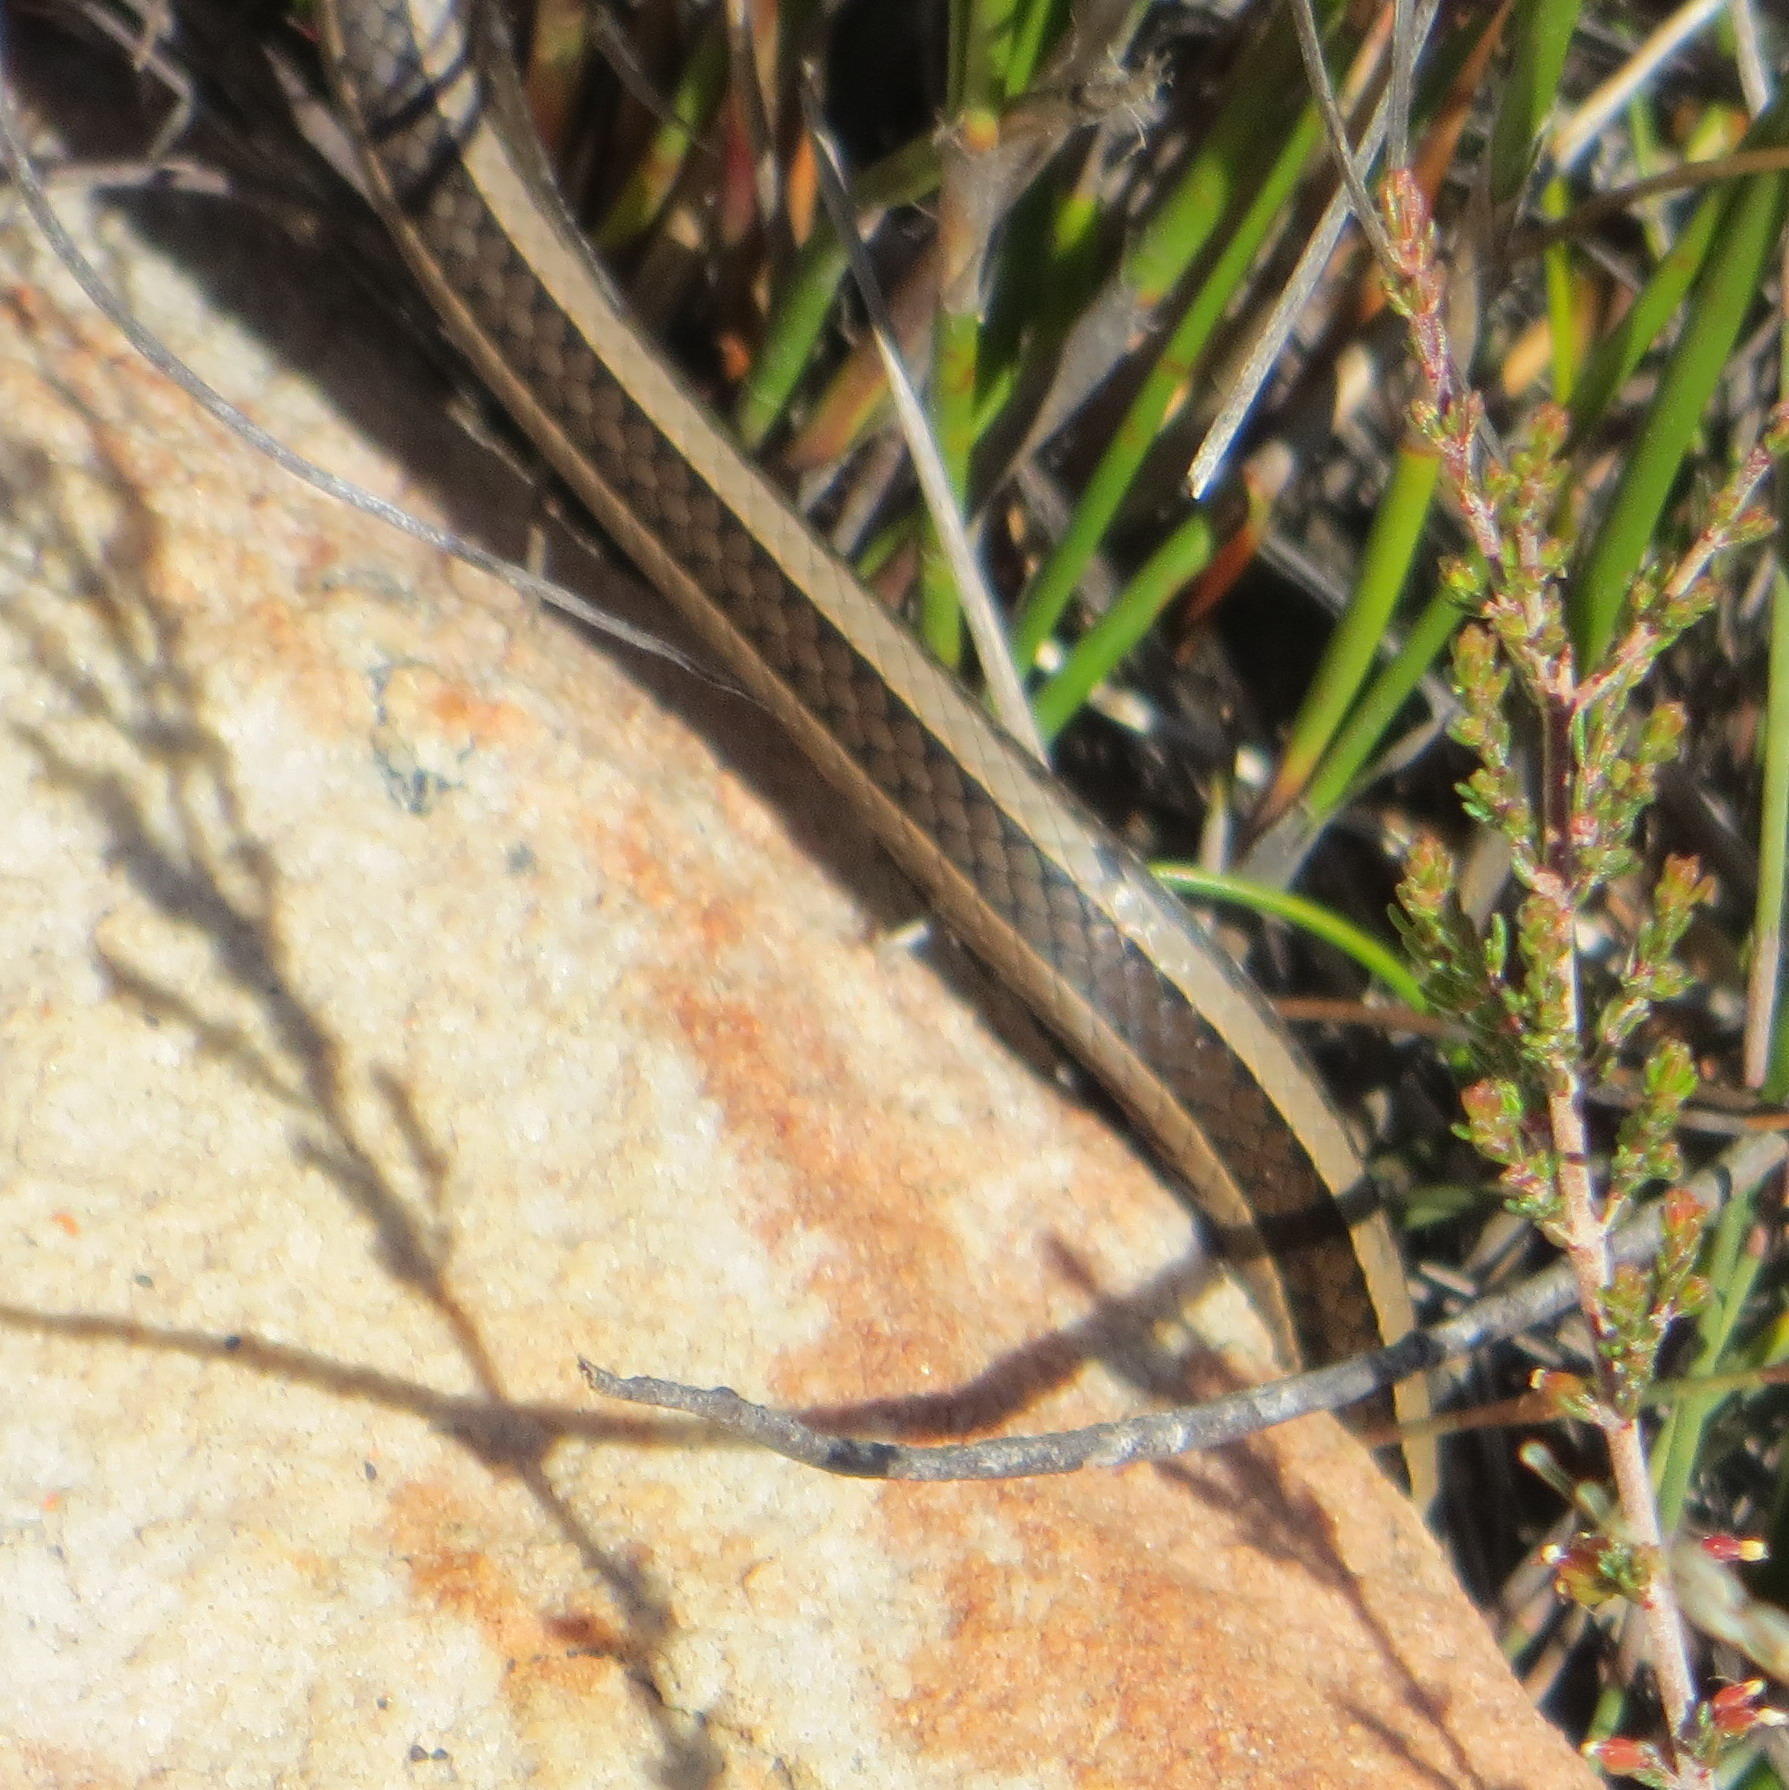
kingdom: Animalia
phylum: Chordata
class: Squamata
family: Psammophiidae
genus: Psammophis
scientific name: Psammophis crucifer
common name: Cross-marked grass snake
